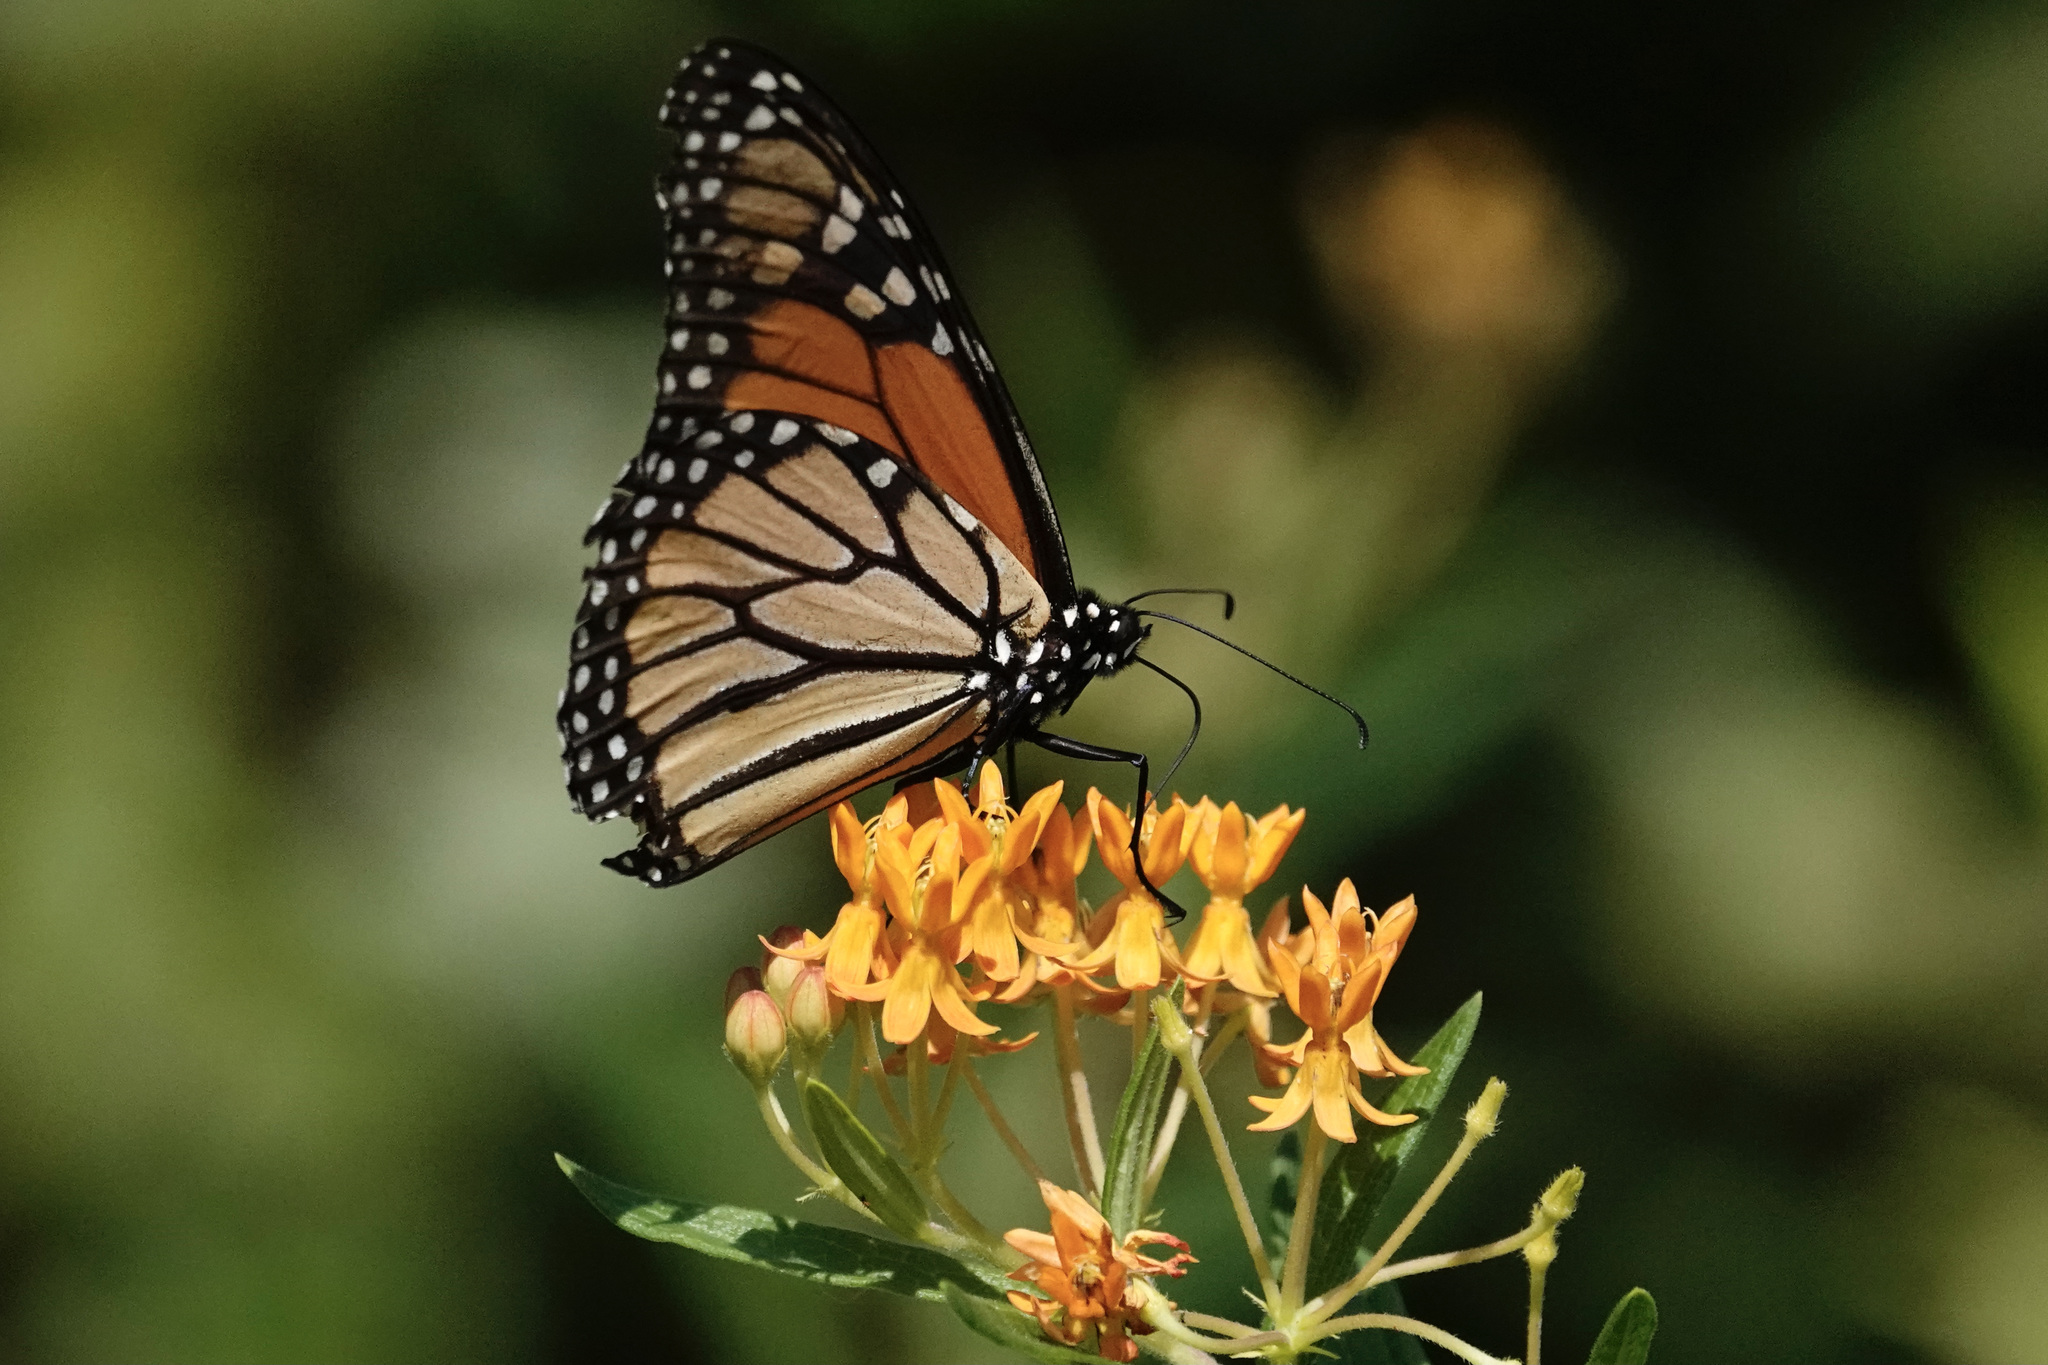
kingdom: Animalia
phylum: Arthropoda
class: Insecta
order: Lepidoptera
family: Nymphalidae
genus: Danaus
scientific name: Danaus plexippus
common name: Monarch
